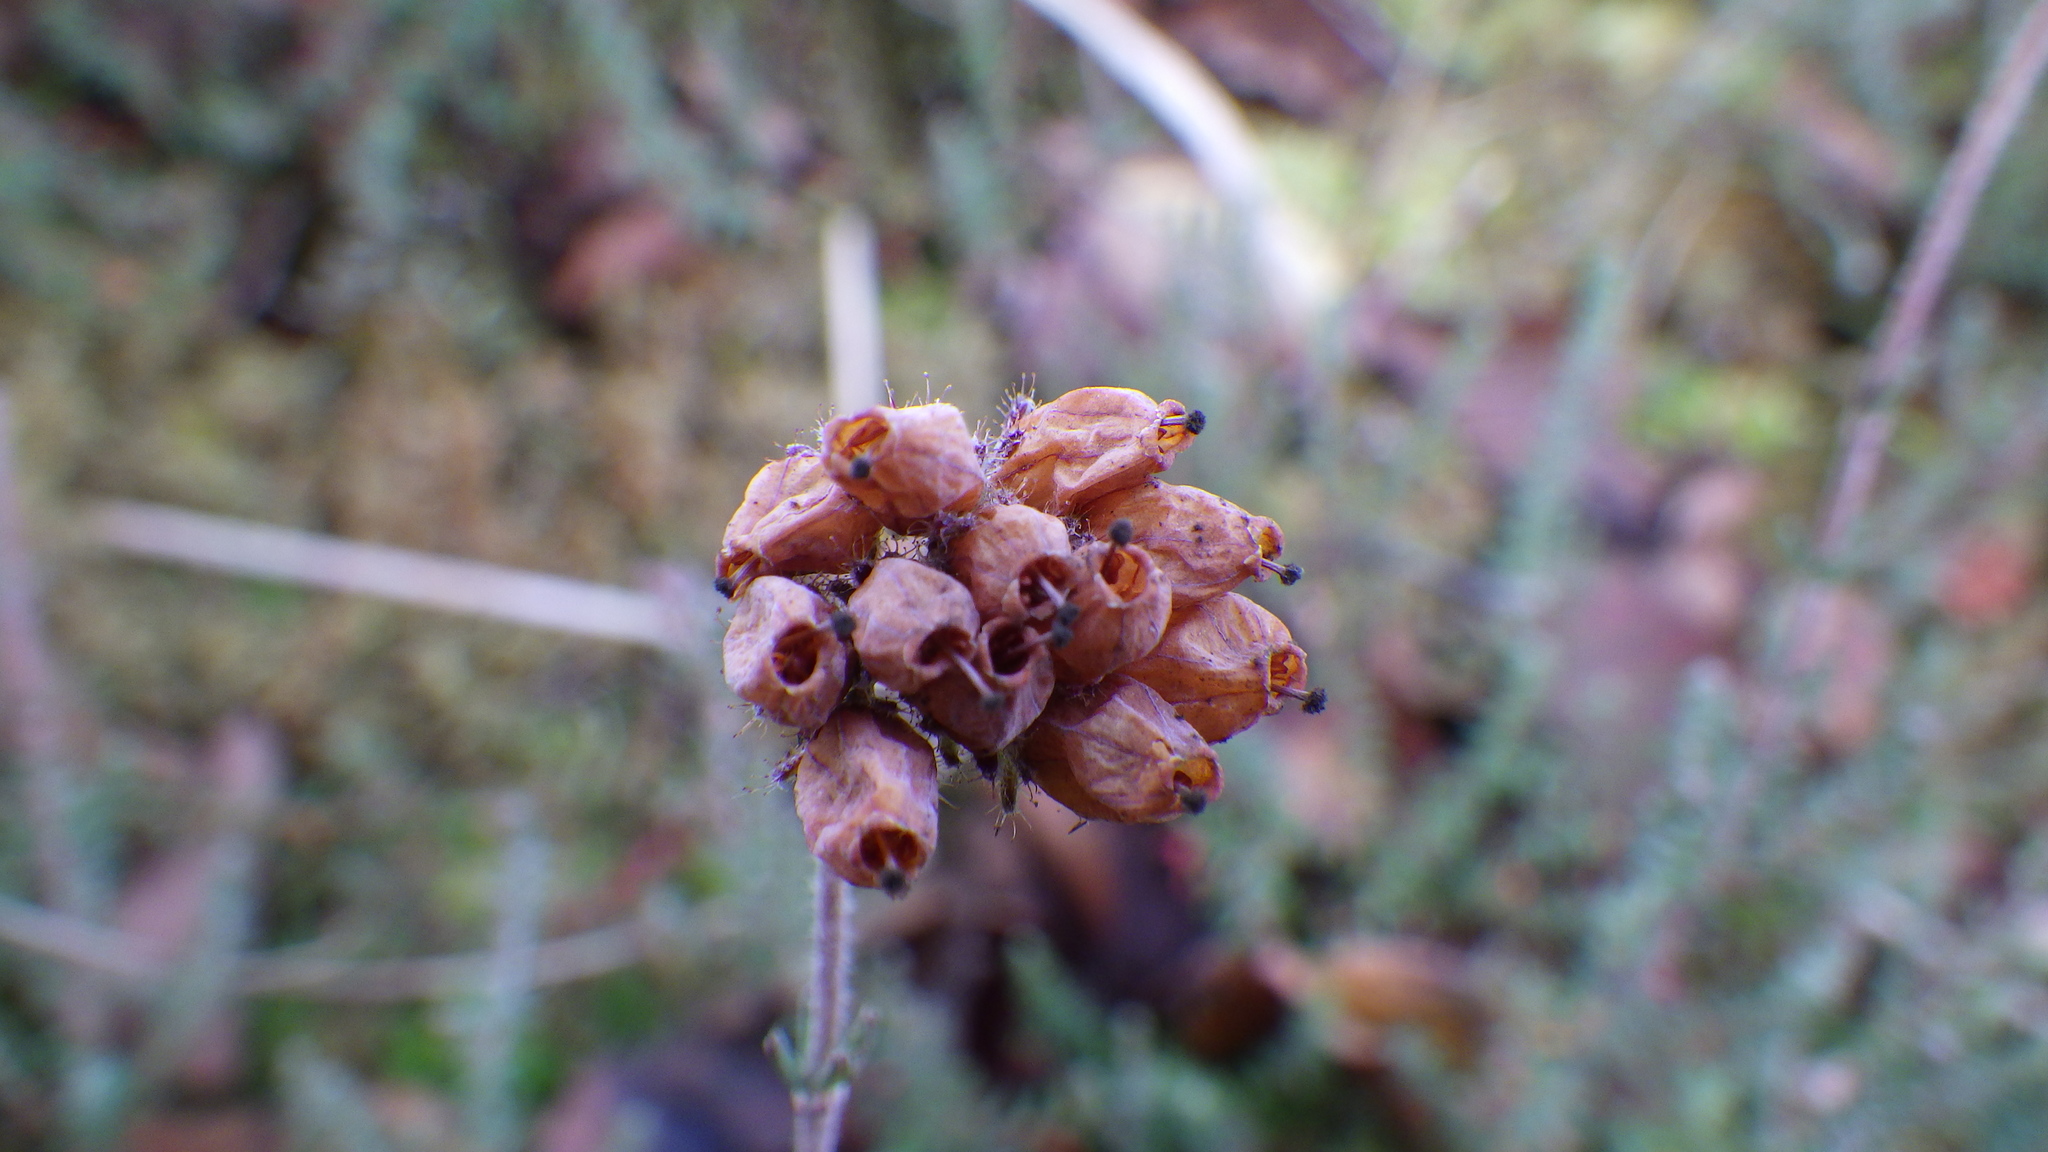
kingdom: Plantae
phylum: Tracheophyta
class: Magnoliopsida
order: Ericales
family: Ericaceae
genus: Erica
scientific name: Erica tetralix
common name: Cross-leaved heath
